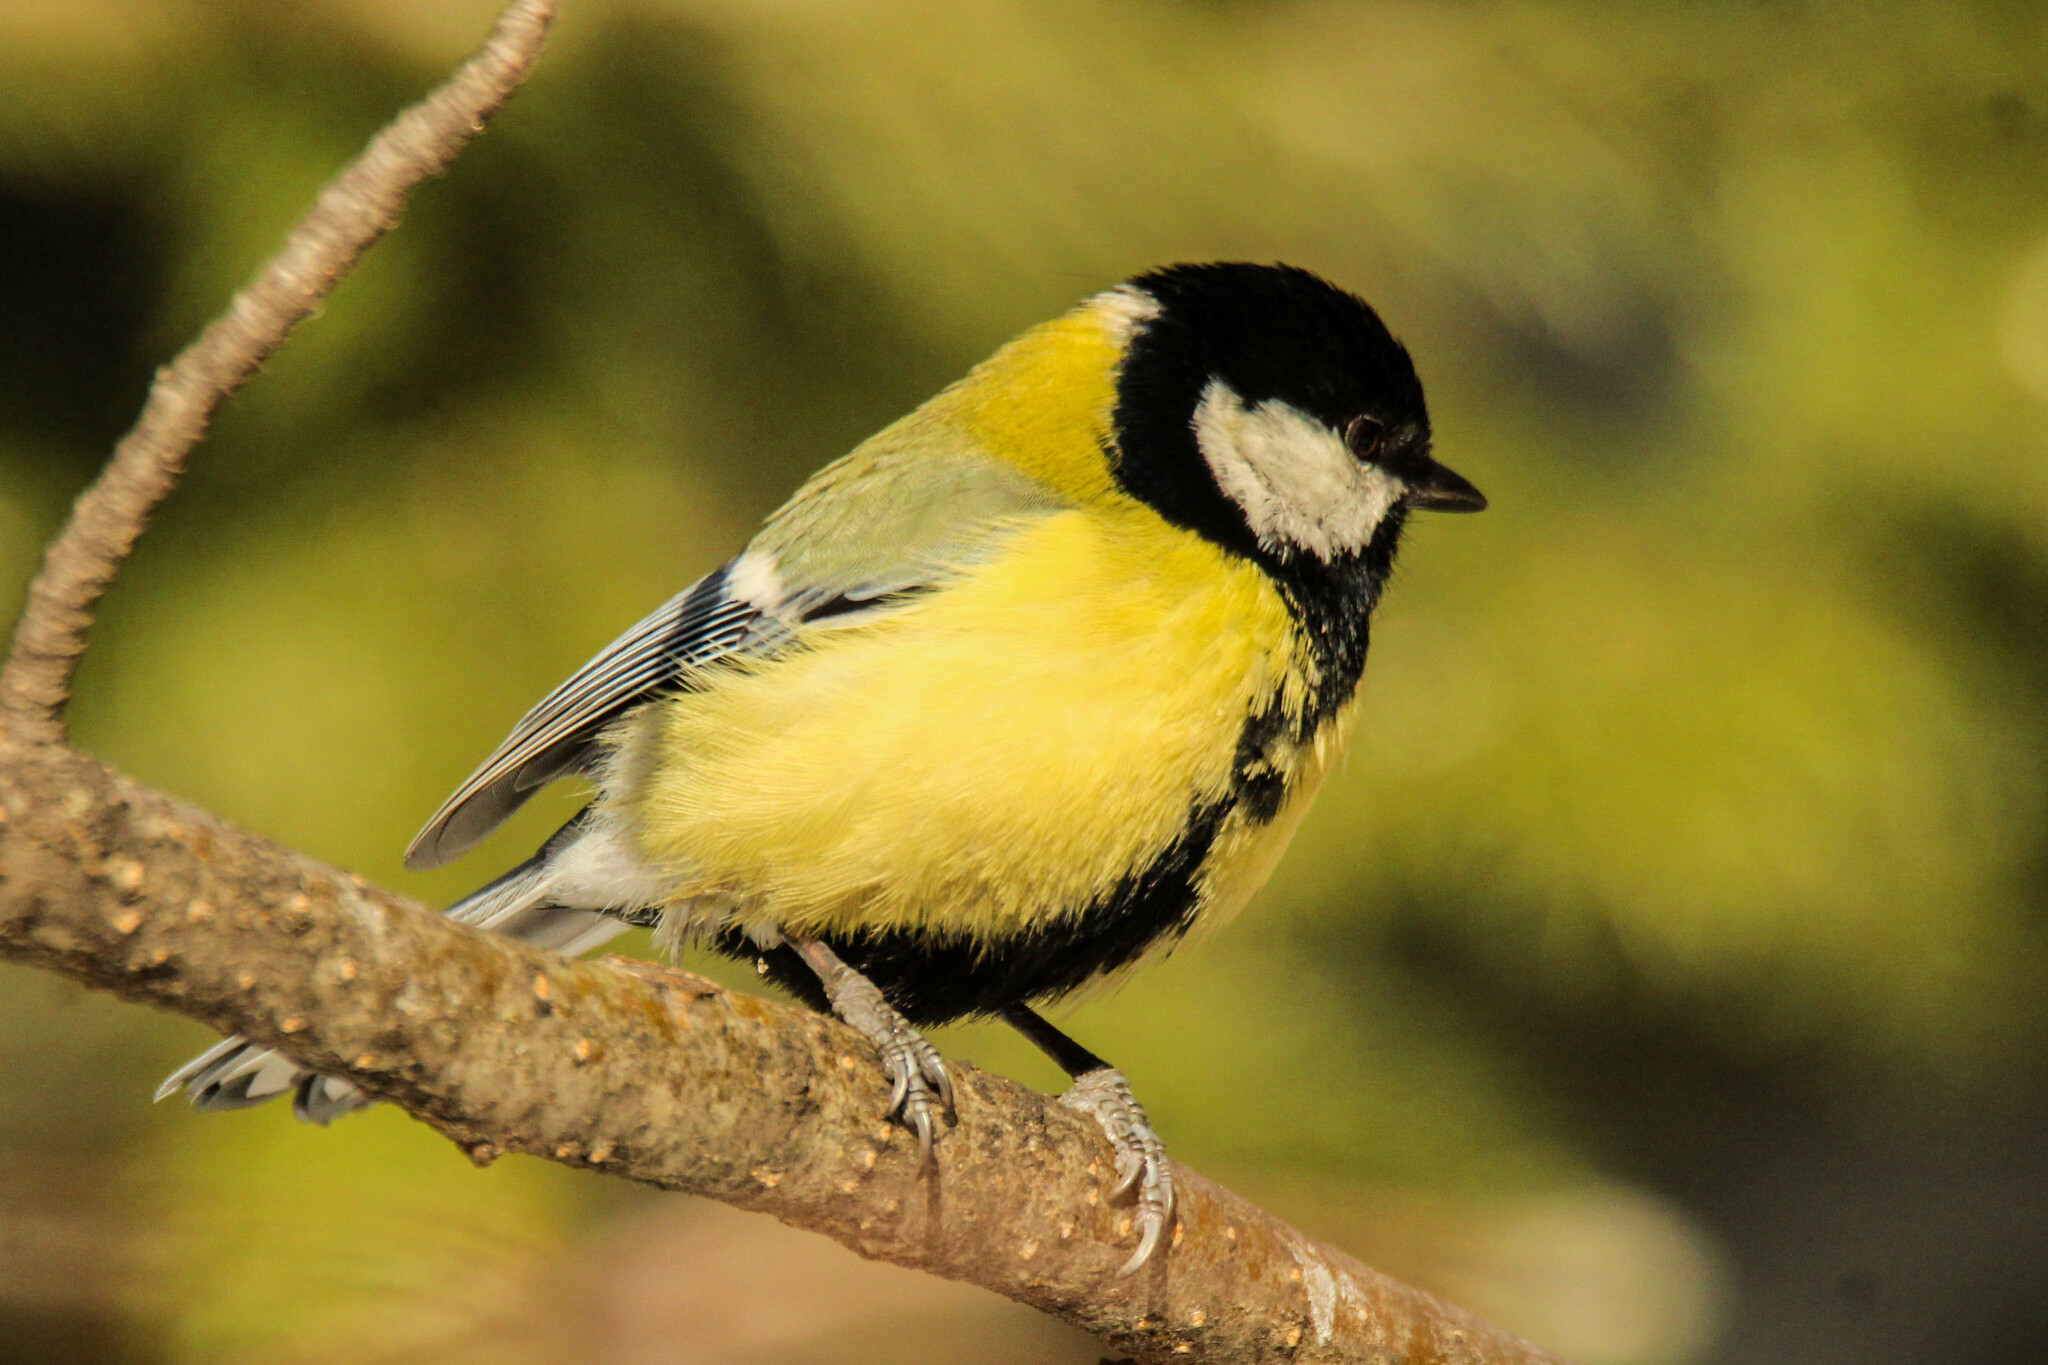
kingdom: Animalia
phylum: Chordata
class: Aves
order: Passeriformes
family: Paridae
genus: Parus
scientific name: Parus major
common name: Great tit
